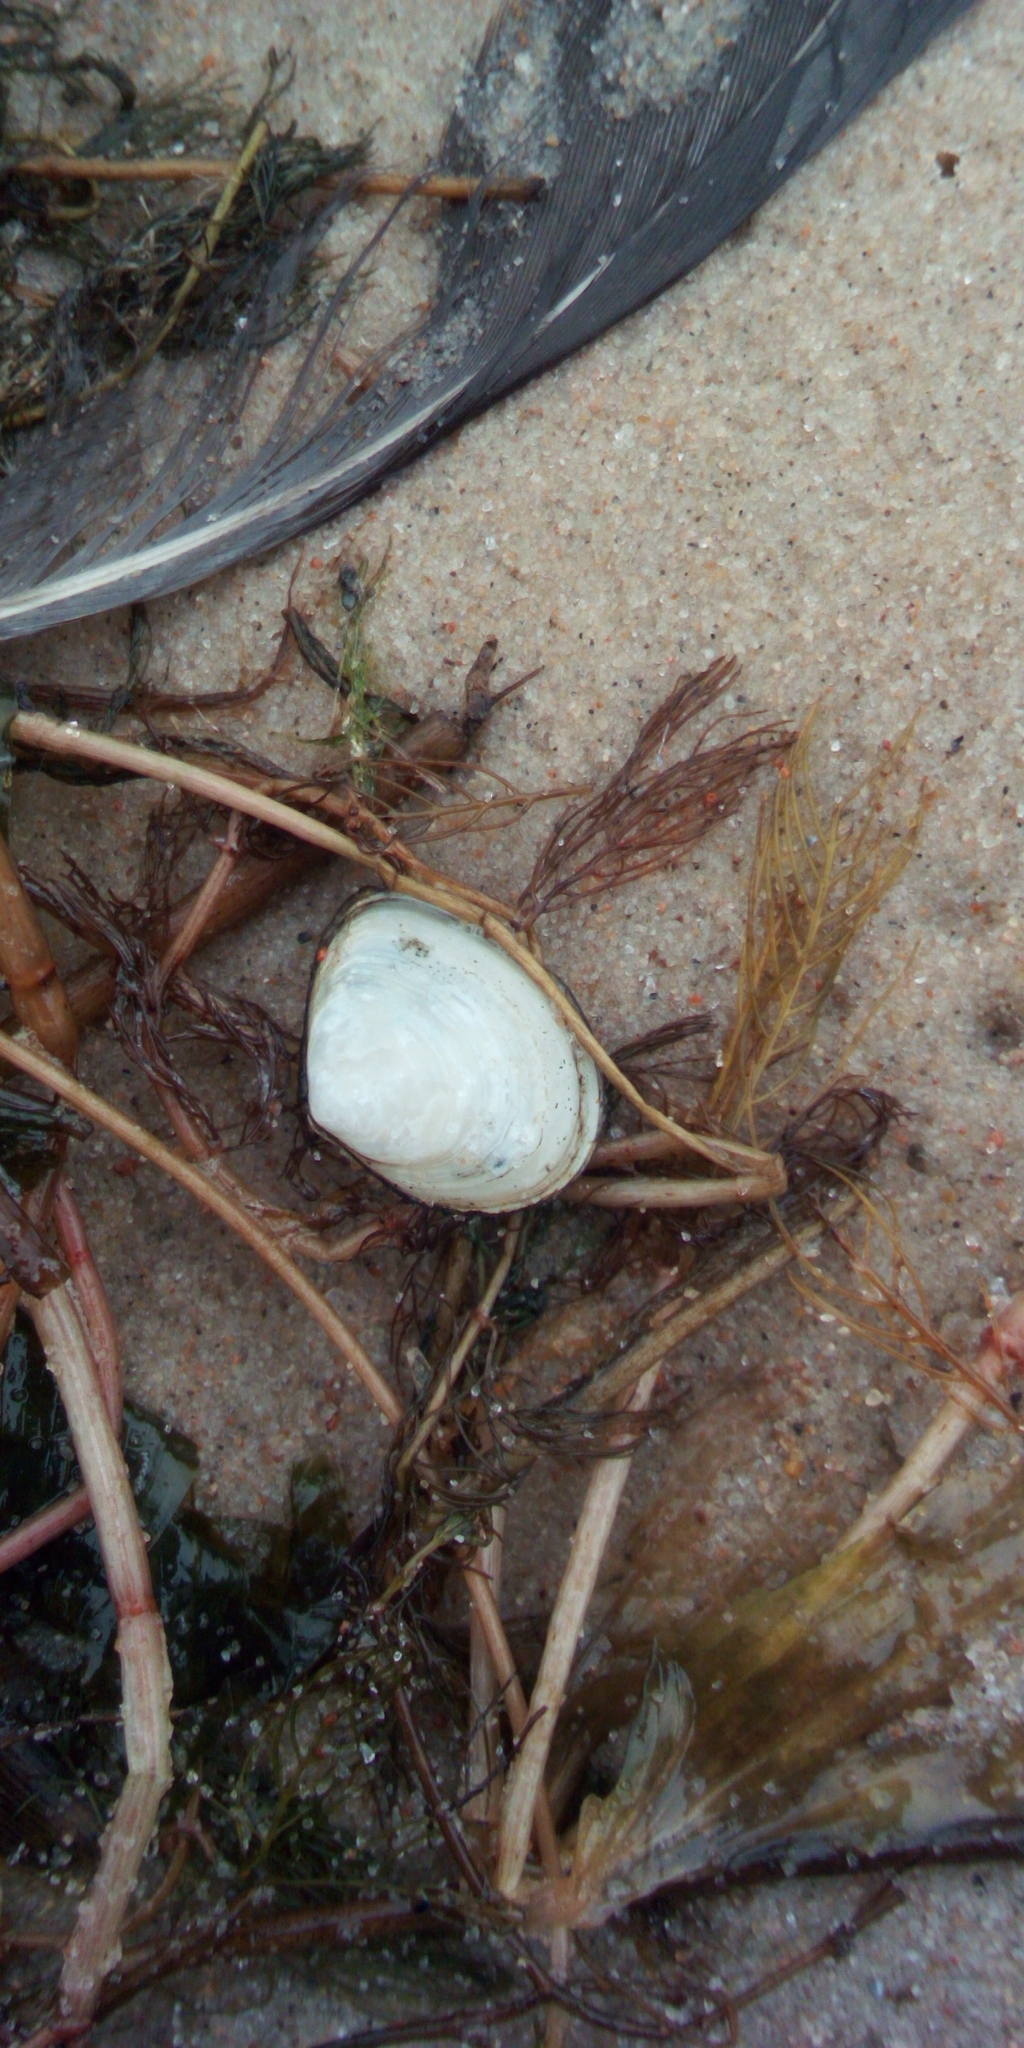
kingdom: Animalia
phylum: Mollusca
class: Bivalvia
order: Cardiida
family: Tellinidae
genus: Macoma
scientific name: Macoma balthica
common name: Baltic tellin
